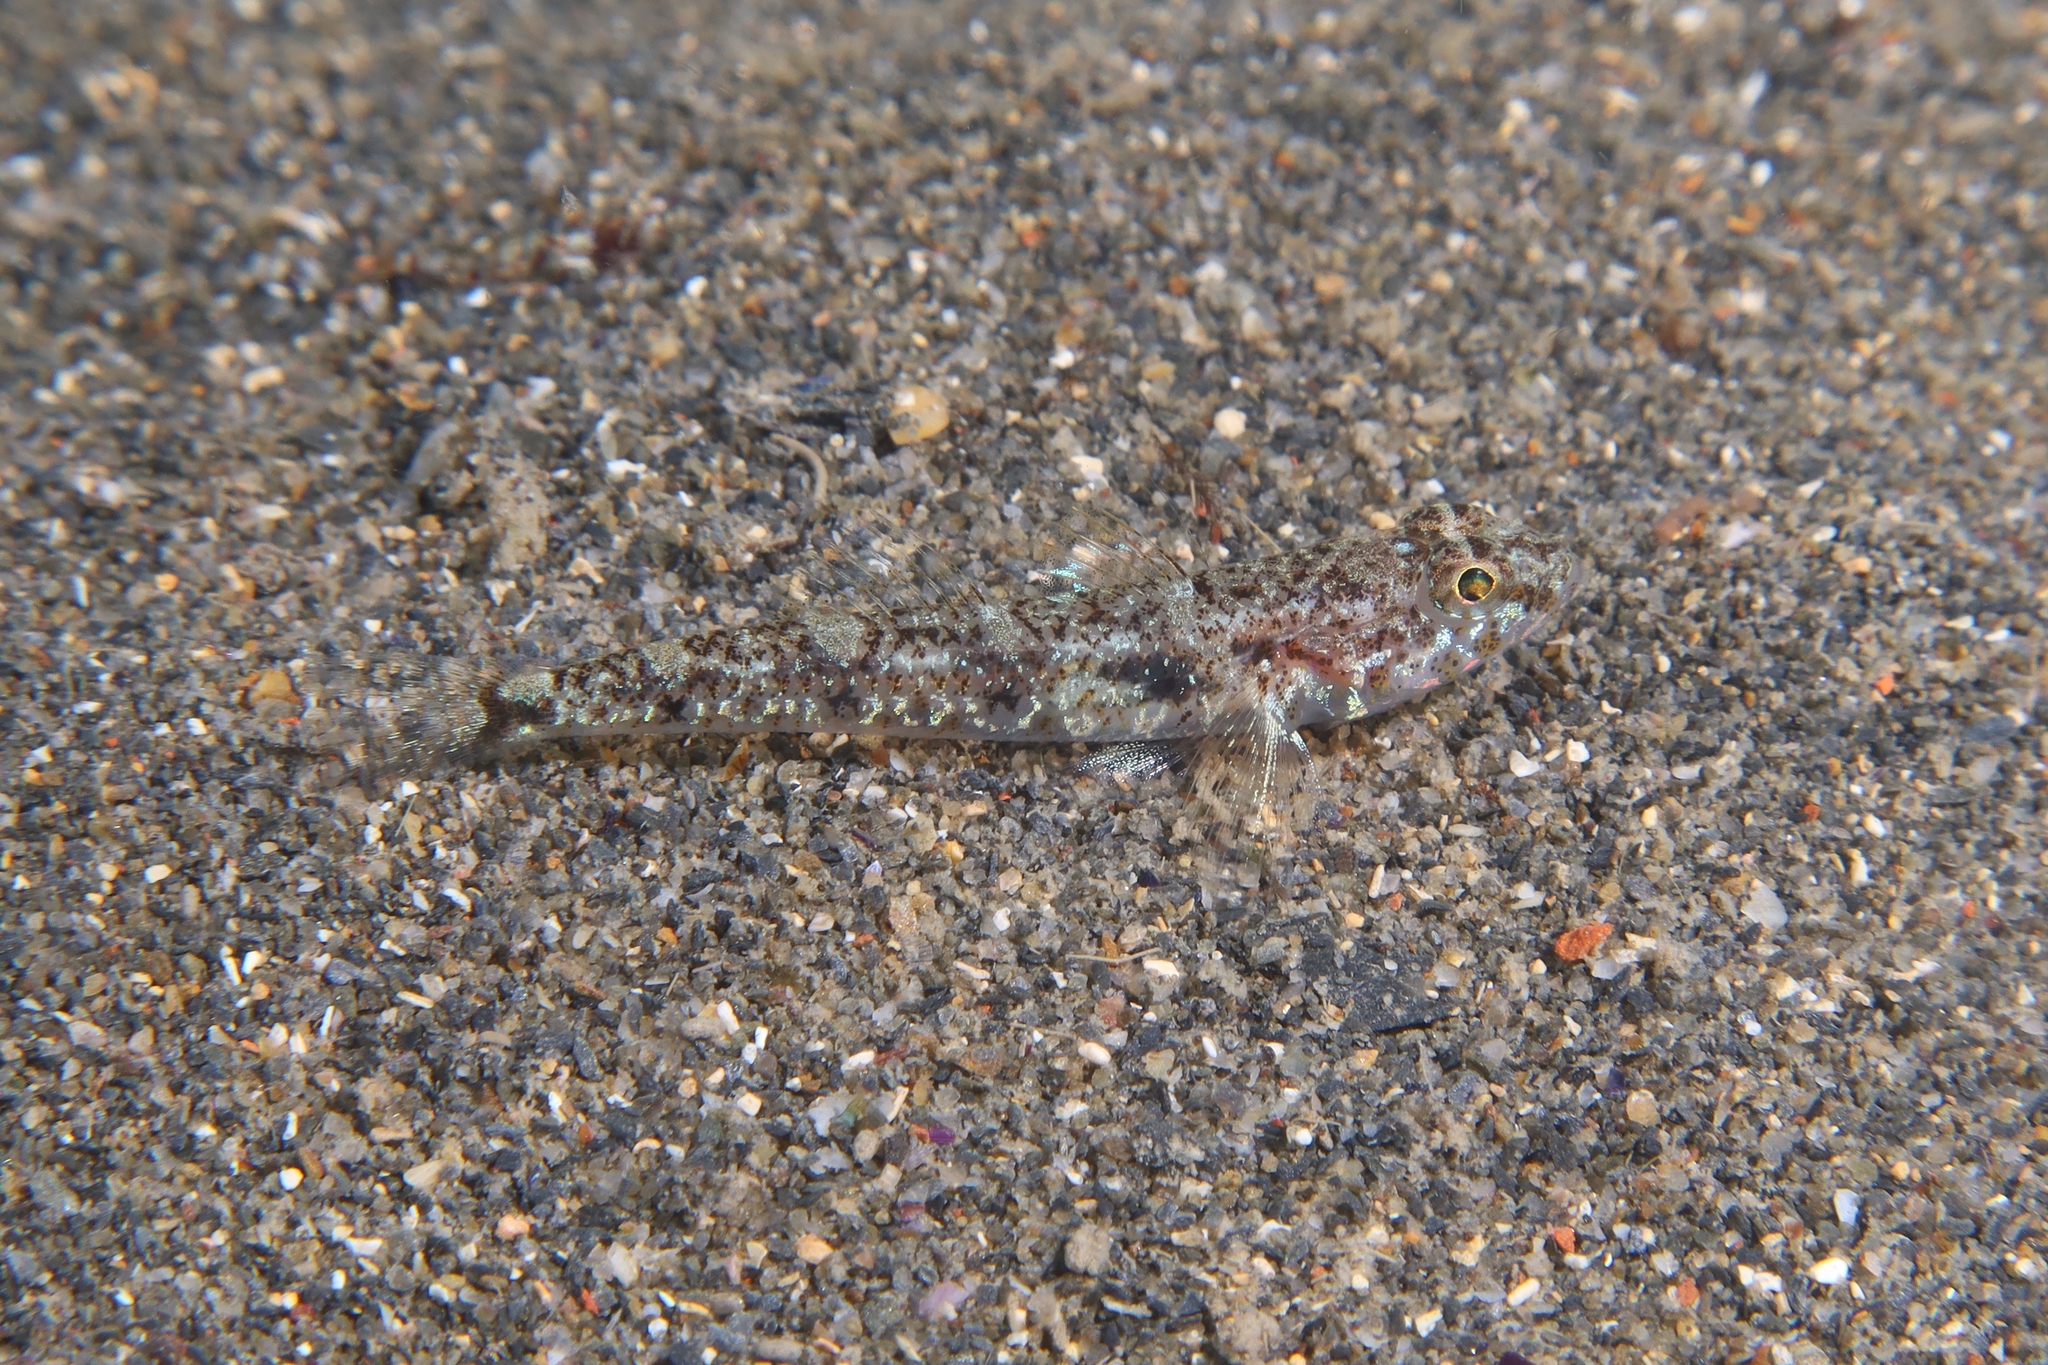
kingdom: Animalia
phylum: Chordata
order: Perciformes
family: Gobiidae
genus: Deltentosteus
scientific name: Deltentosteus quadrimaculatus
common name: Four-spotted goby
